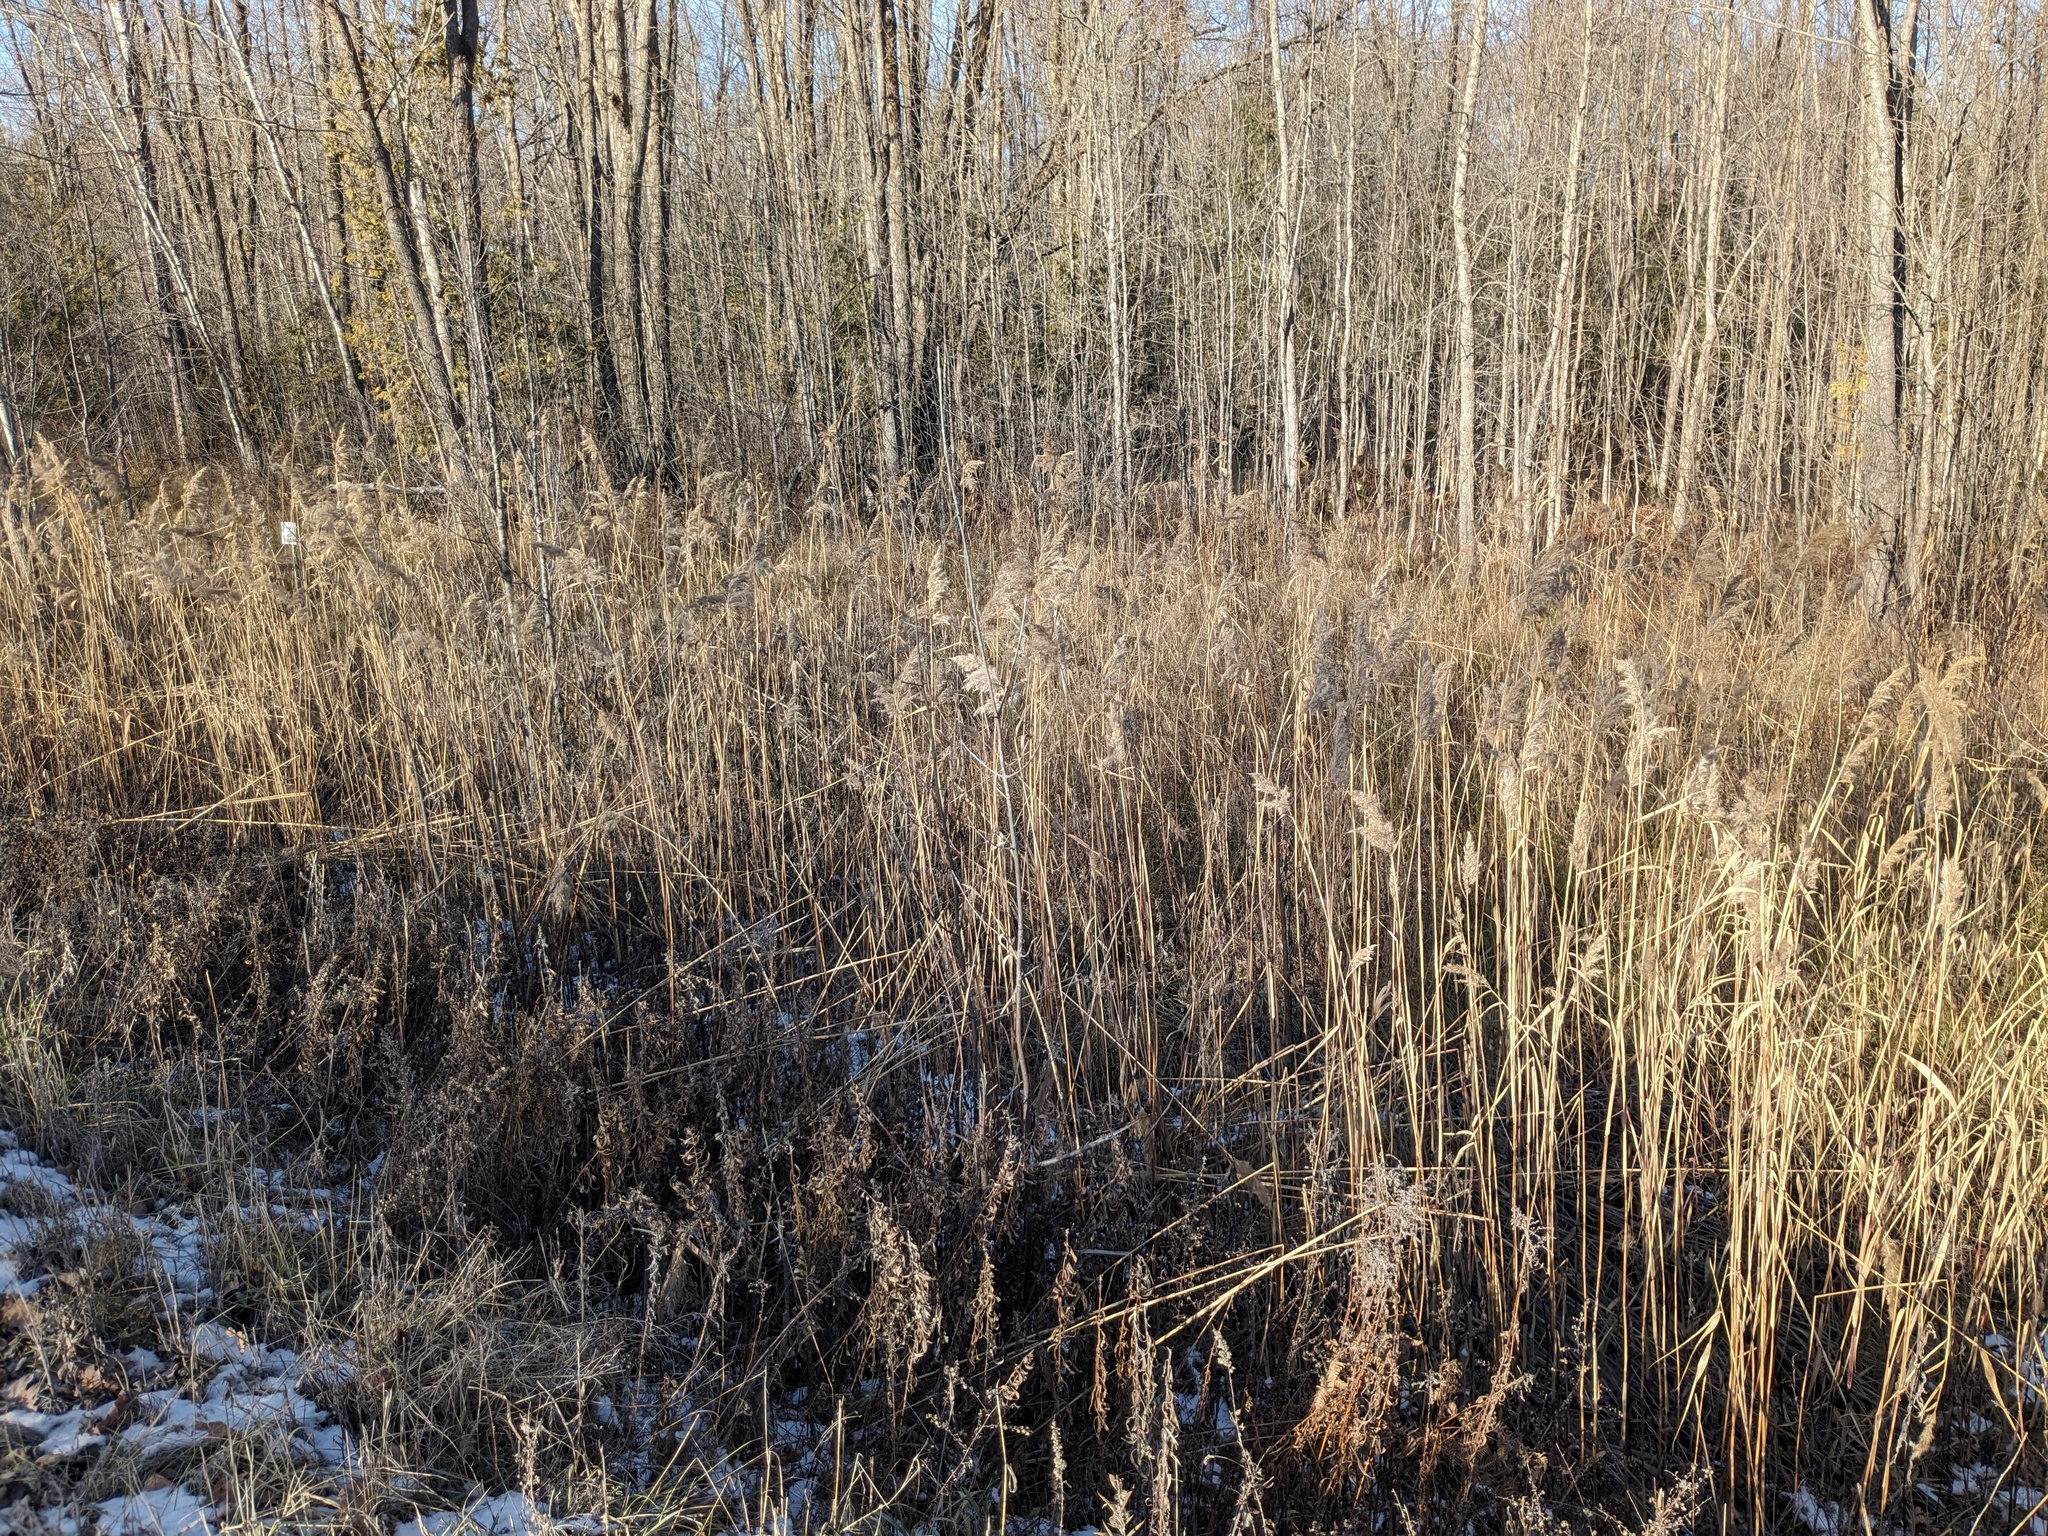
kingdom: Plantae
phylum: Tracheophyta
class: Liliopsida
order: Poales
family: Poaceae
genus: Phragmites
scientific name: Phragmites australis
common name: Common reed
